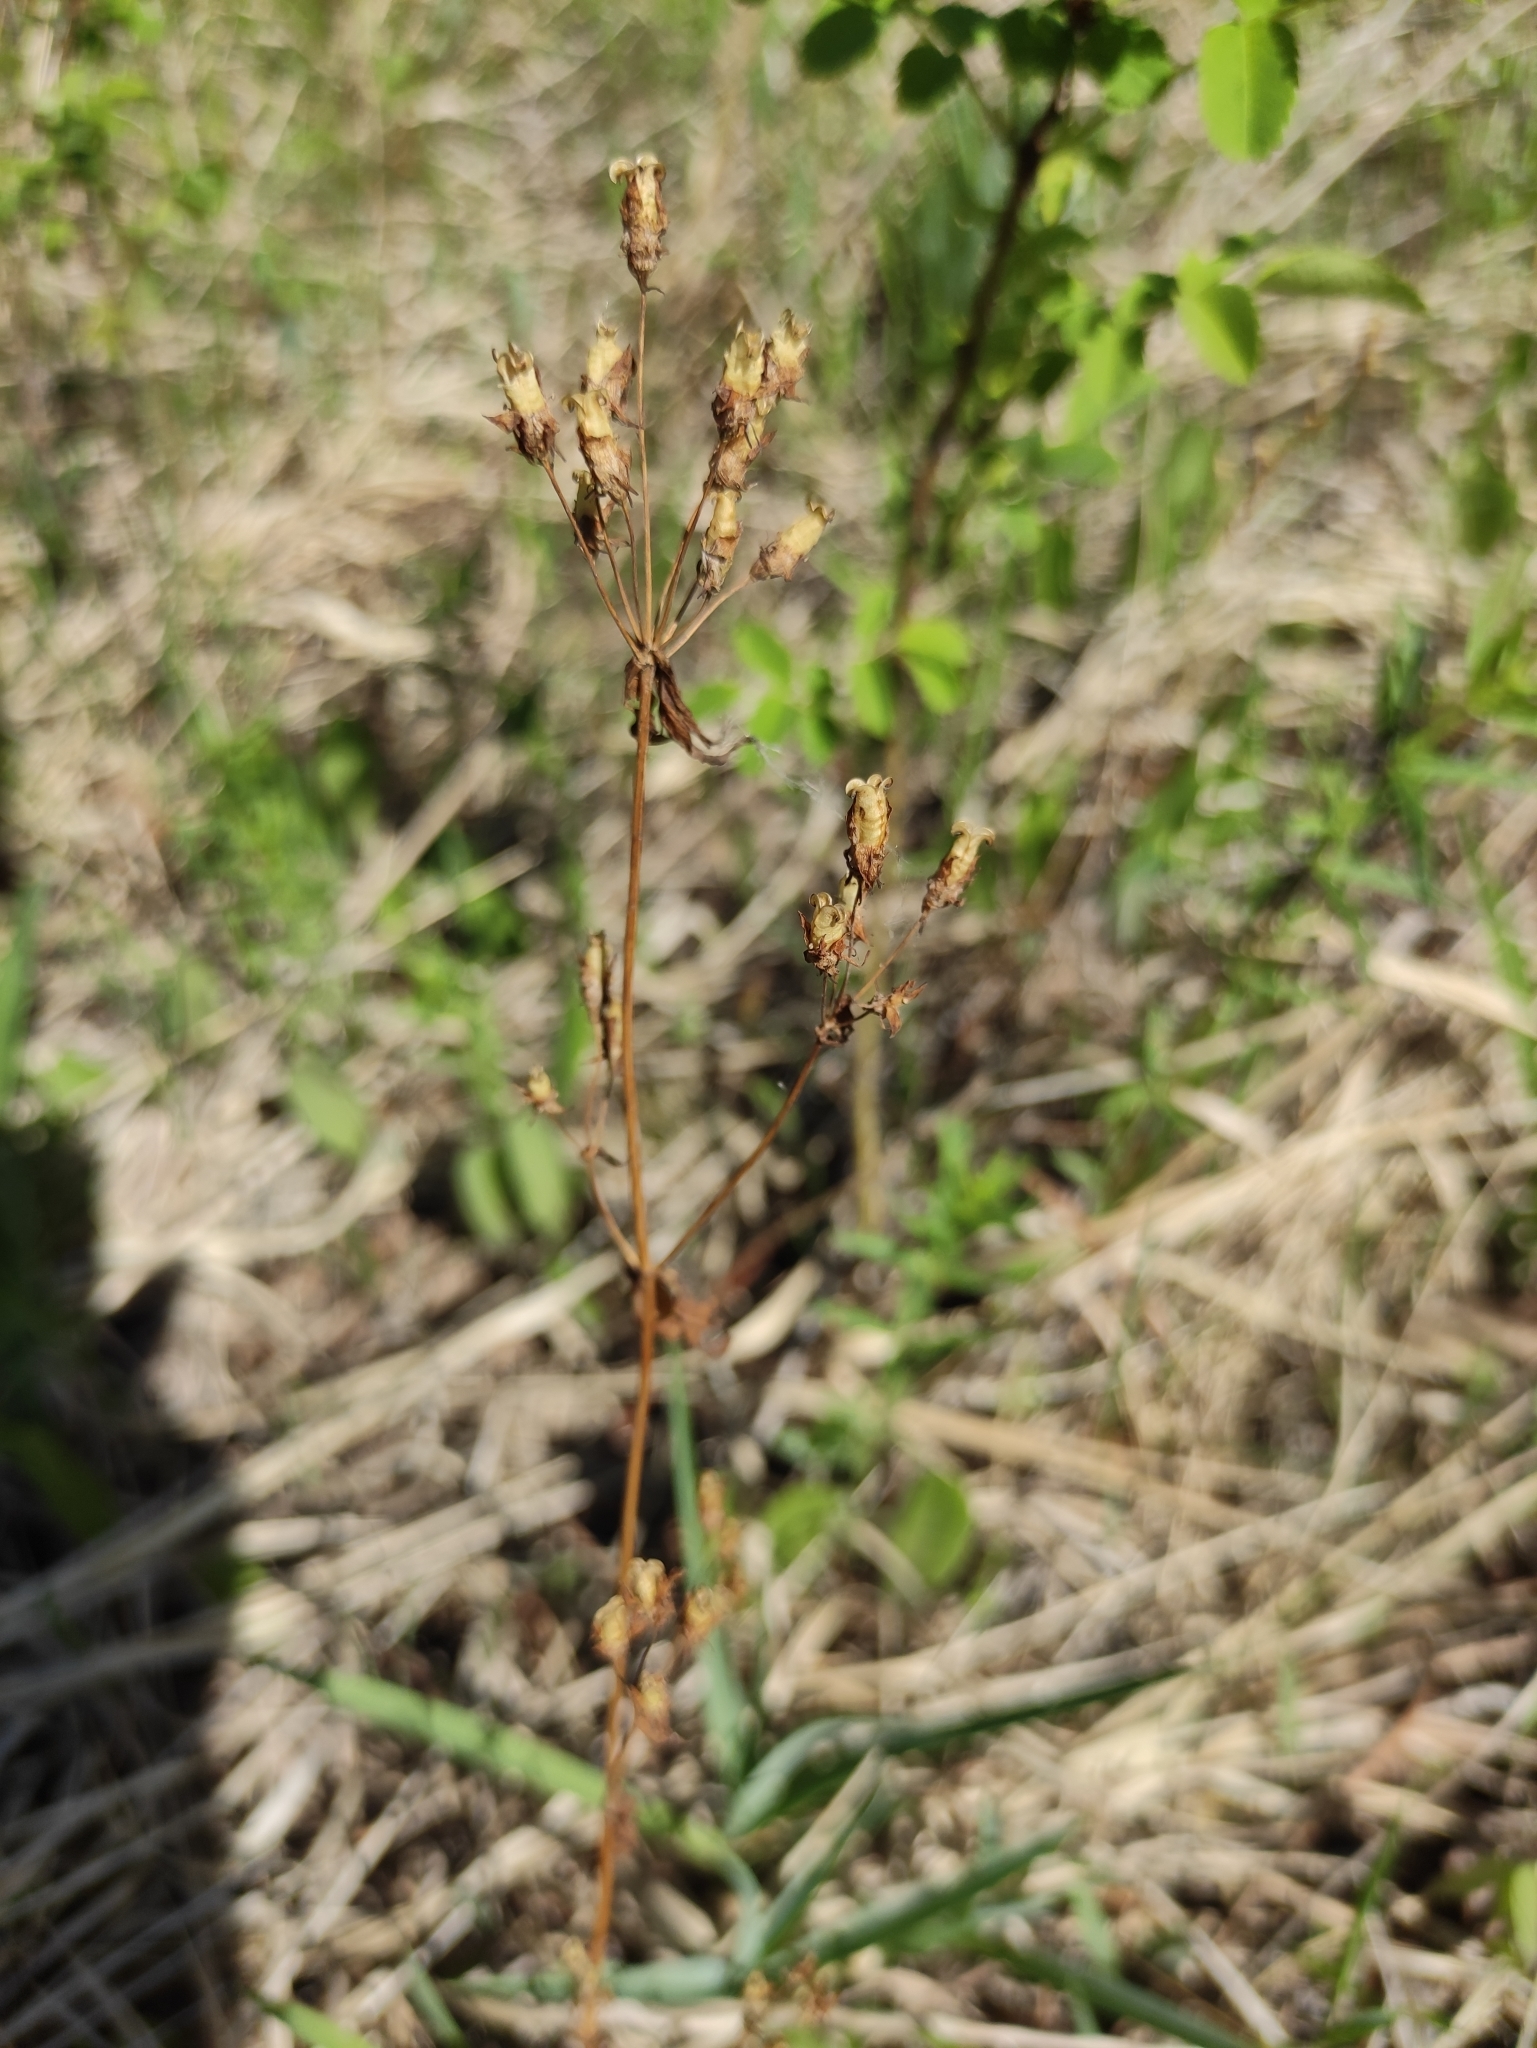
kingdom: Plantae
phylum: Tracheophyta
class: Magnoliopsida
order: Gentianales
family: Gentianaceae
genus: Halenia
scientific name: Halenia corniculata
